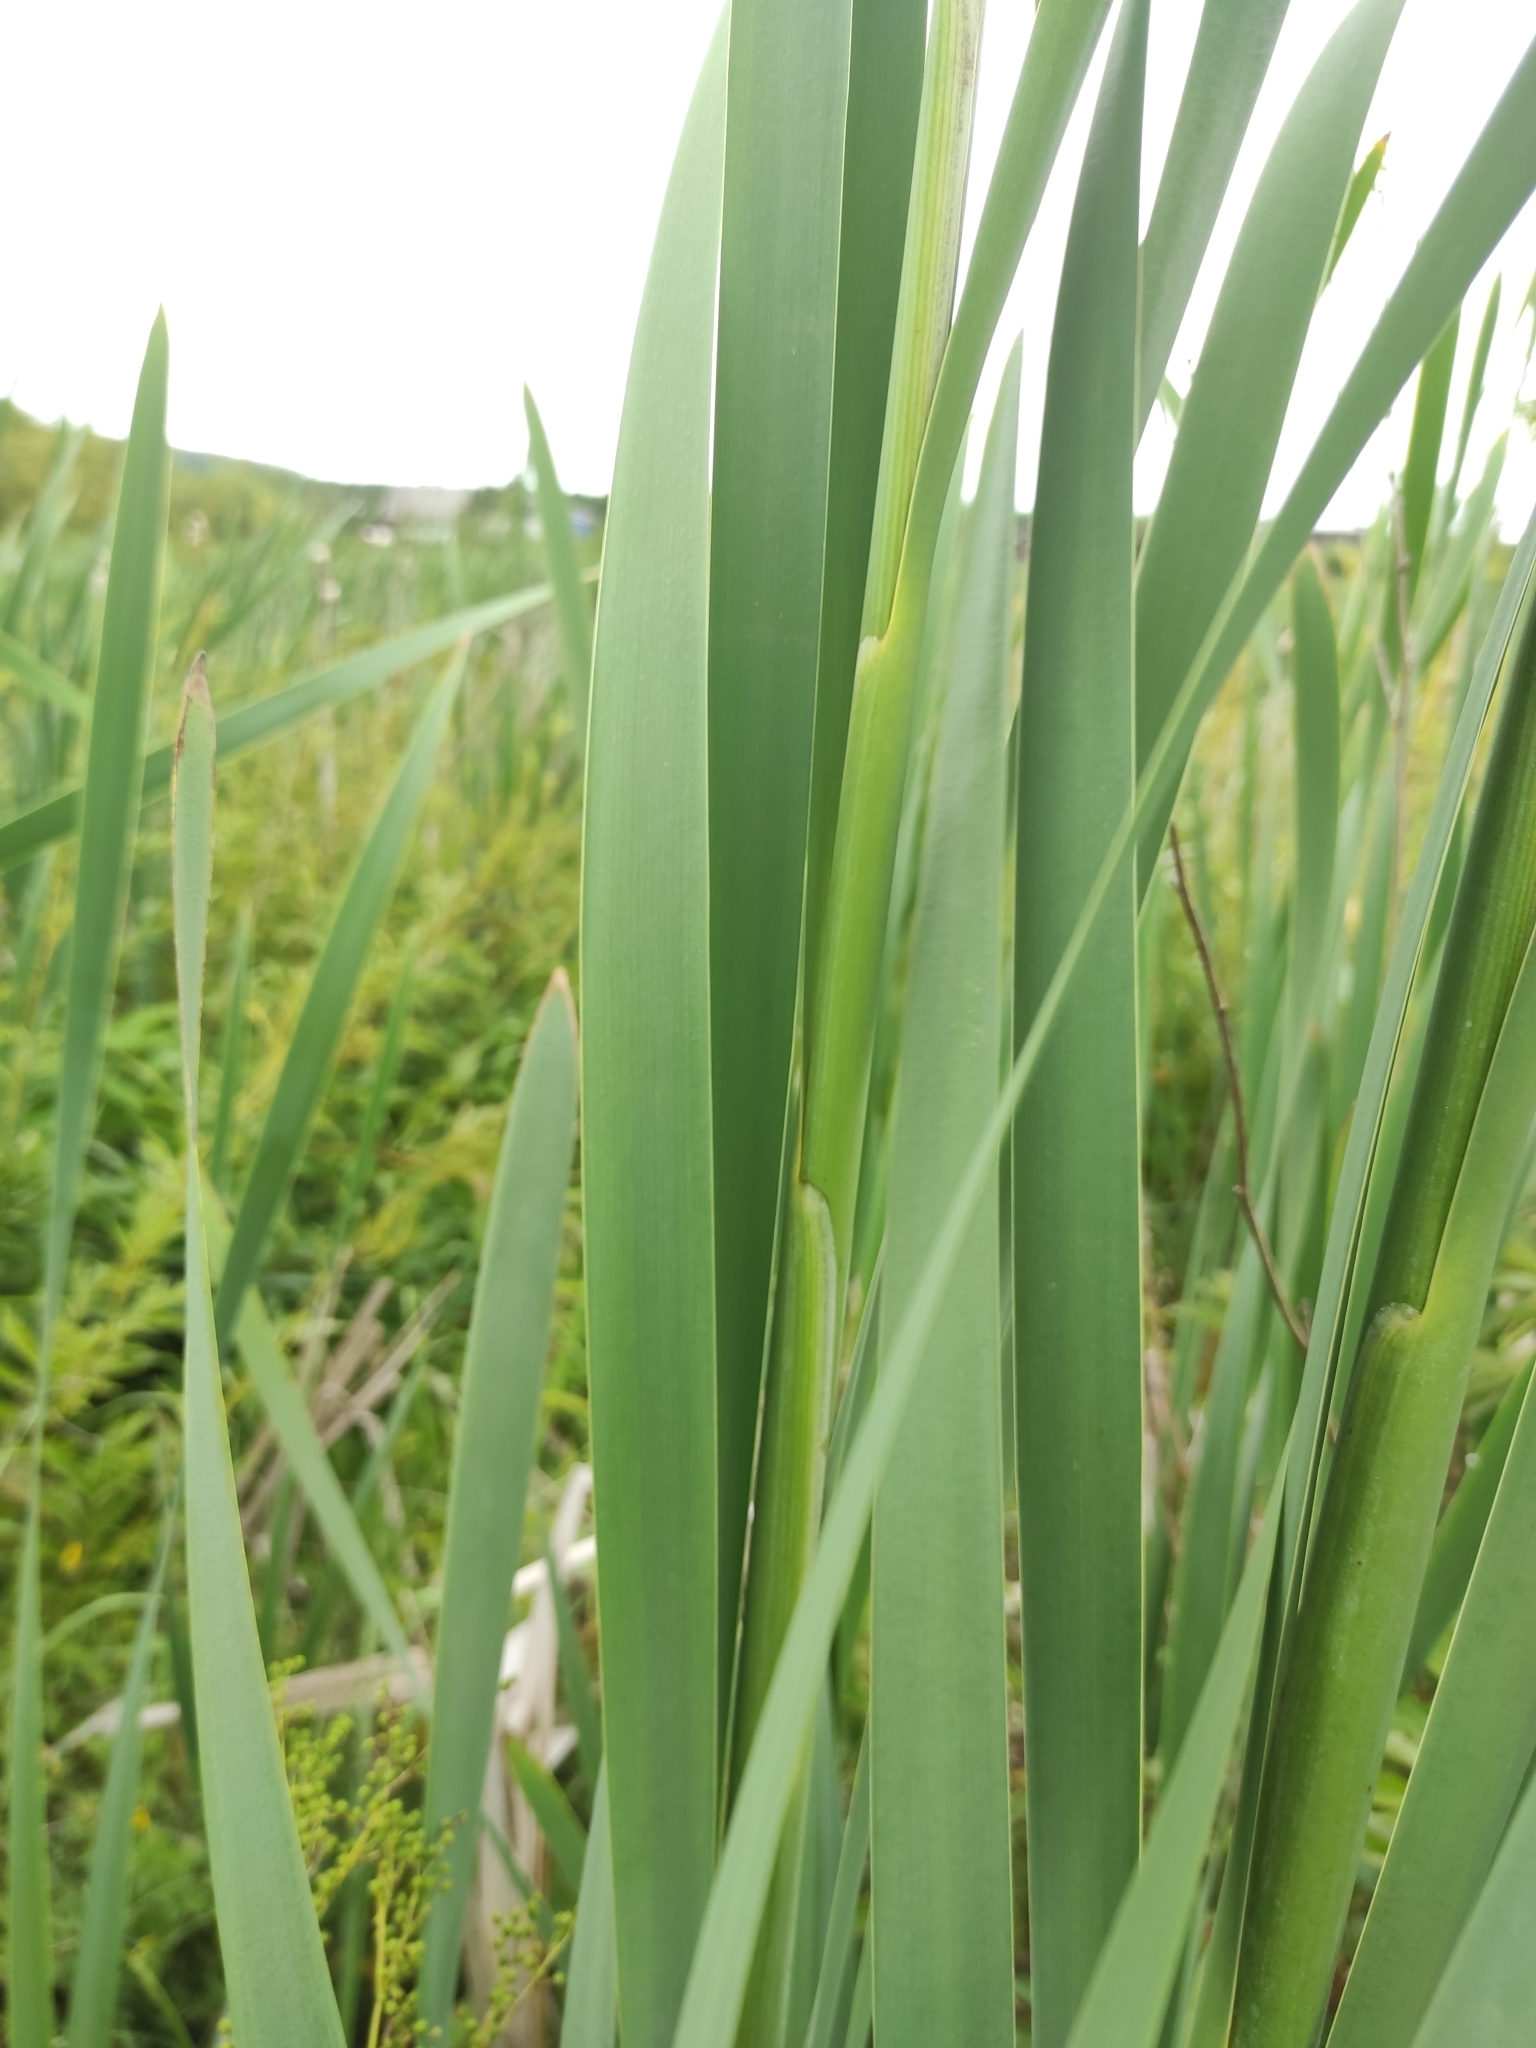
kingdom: Plantae
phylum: Tracheophyta
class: Liliopsida
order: Poales
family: Typhaceae
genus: Typha
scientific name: Typha latifolia
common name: Broadleaf cattail
